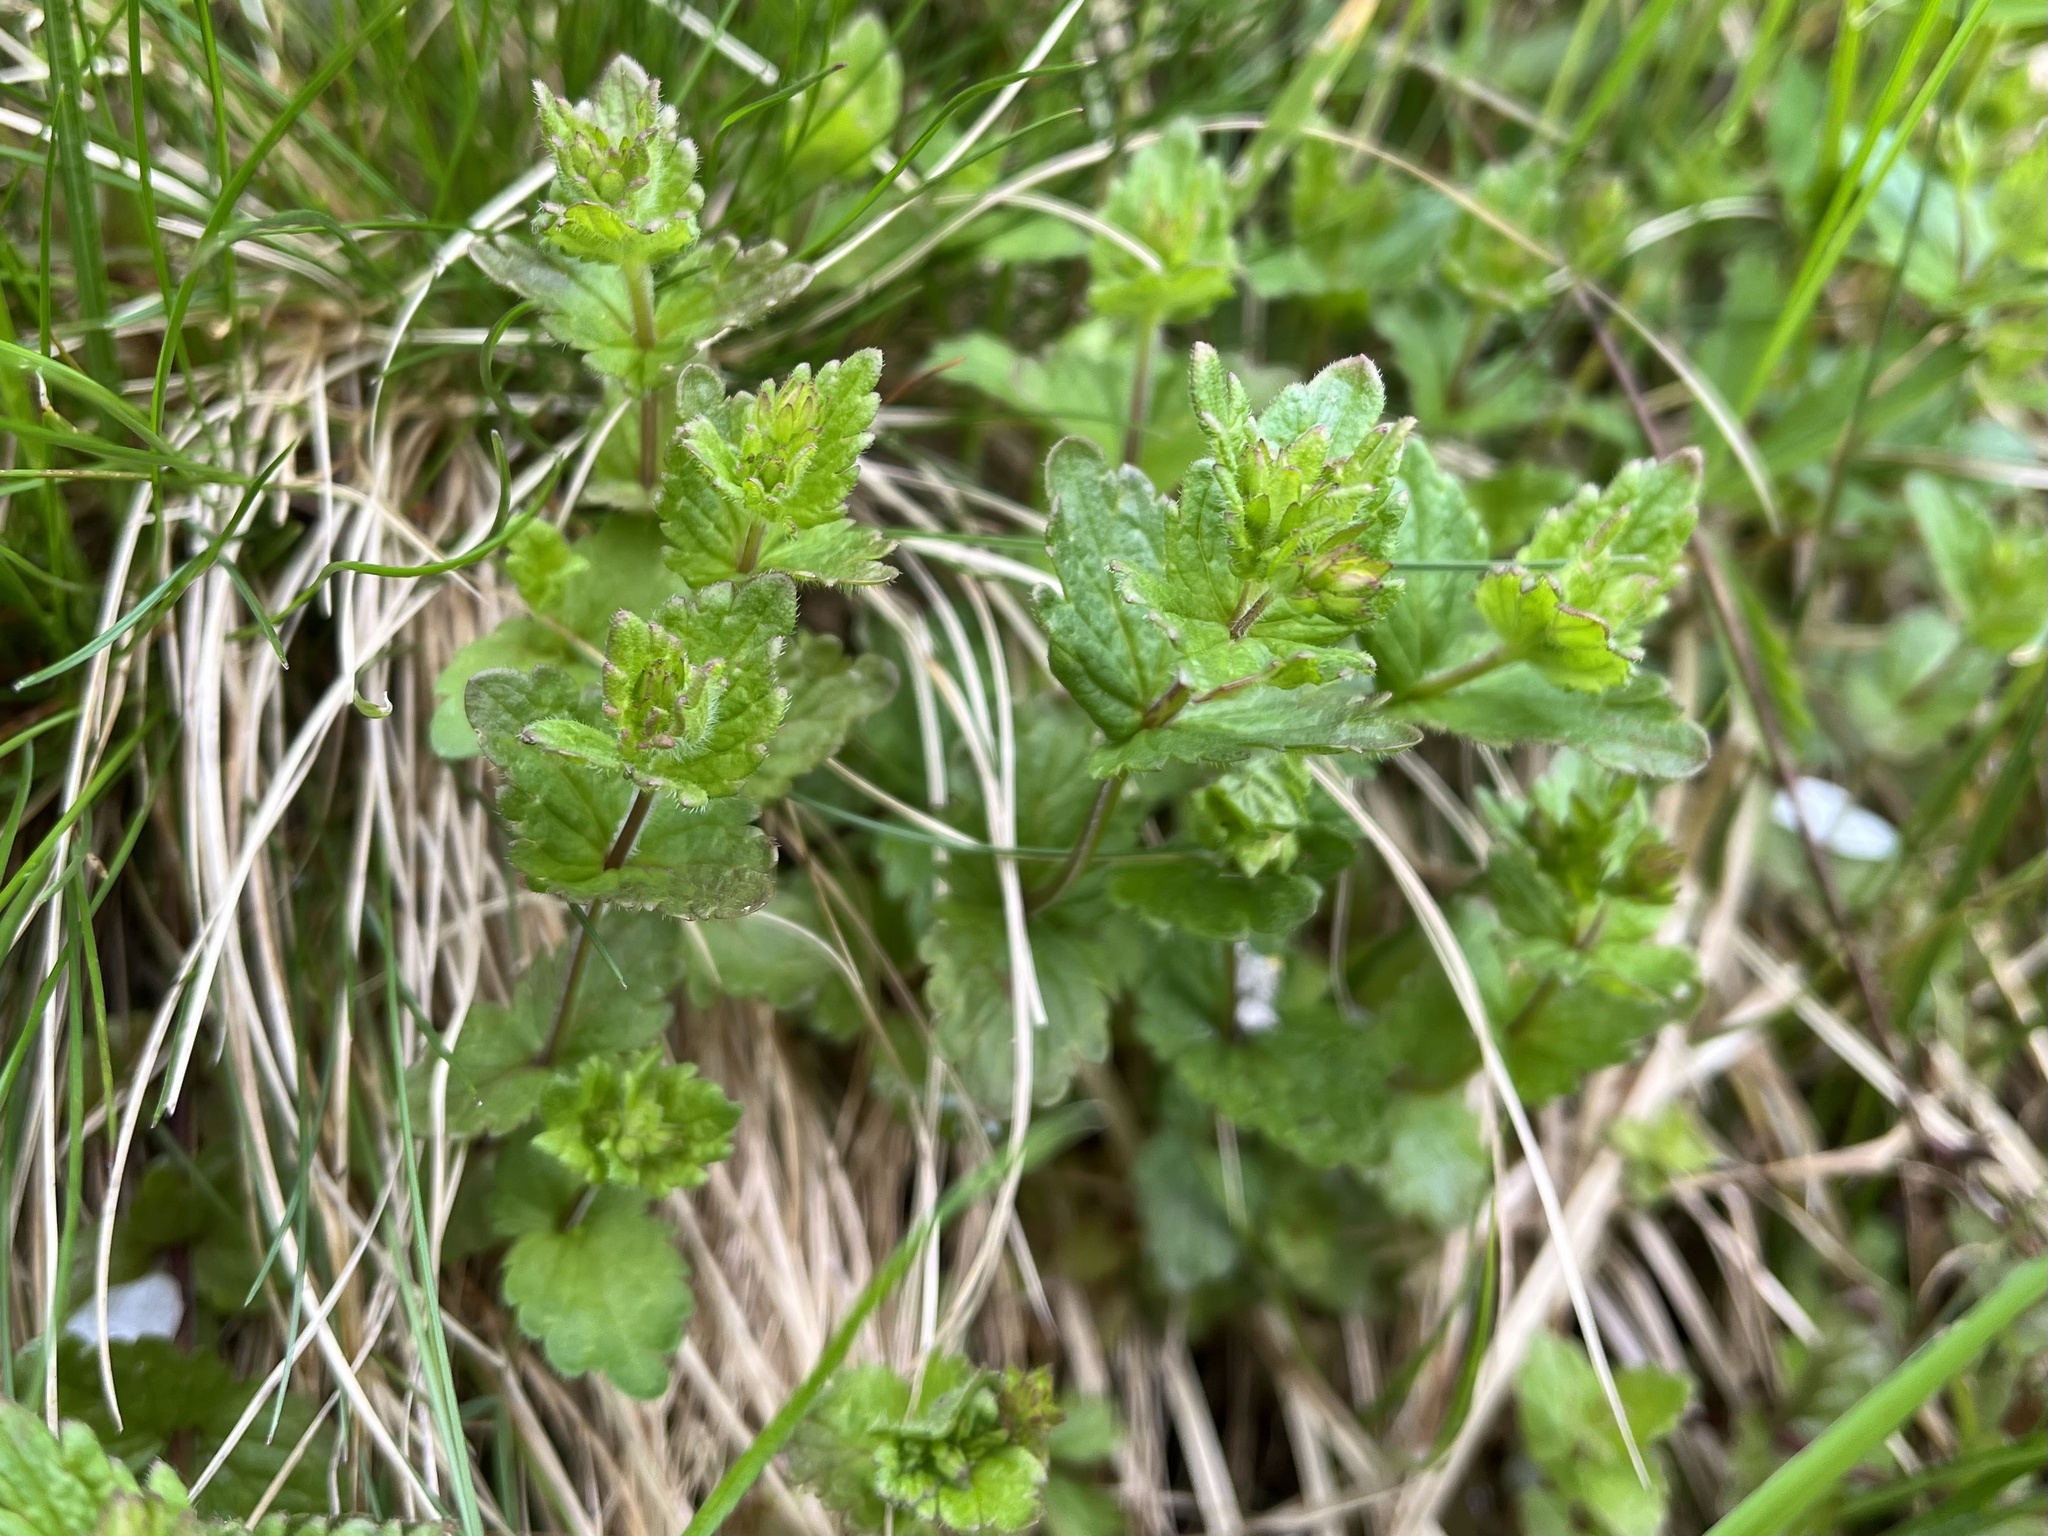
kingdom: Plantae
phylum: Tracheophyta
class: Magnoliopsida
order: Lamiales
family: Plantaginaceae
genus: Veronica
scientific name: Veronica chamaedrys
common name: Germander speedwell
